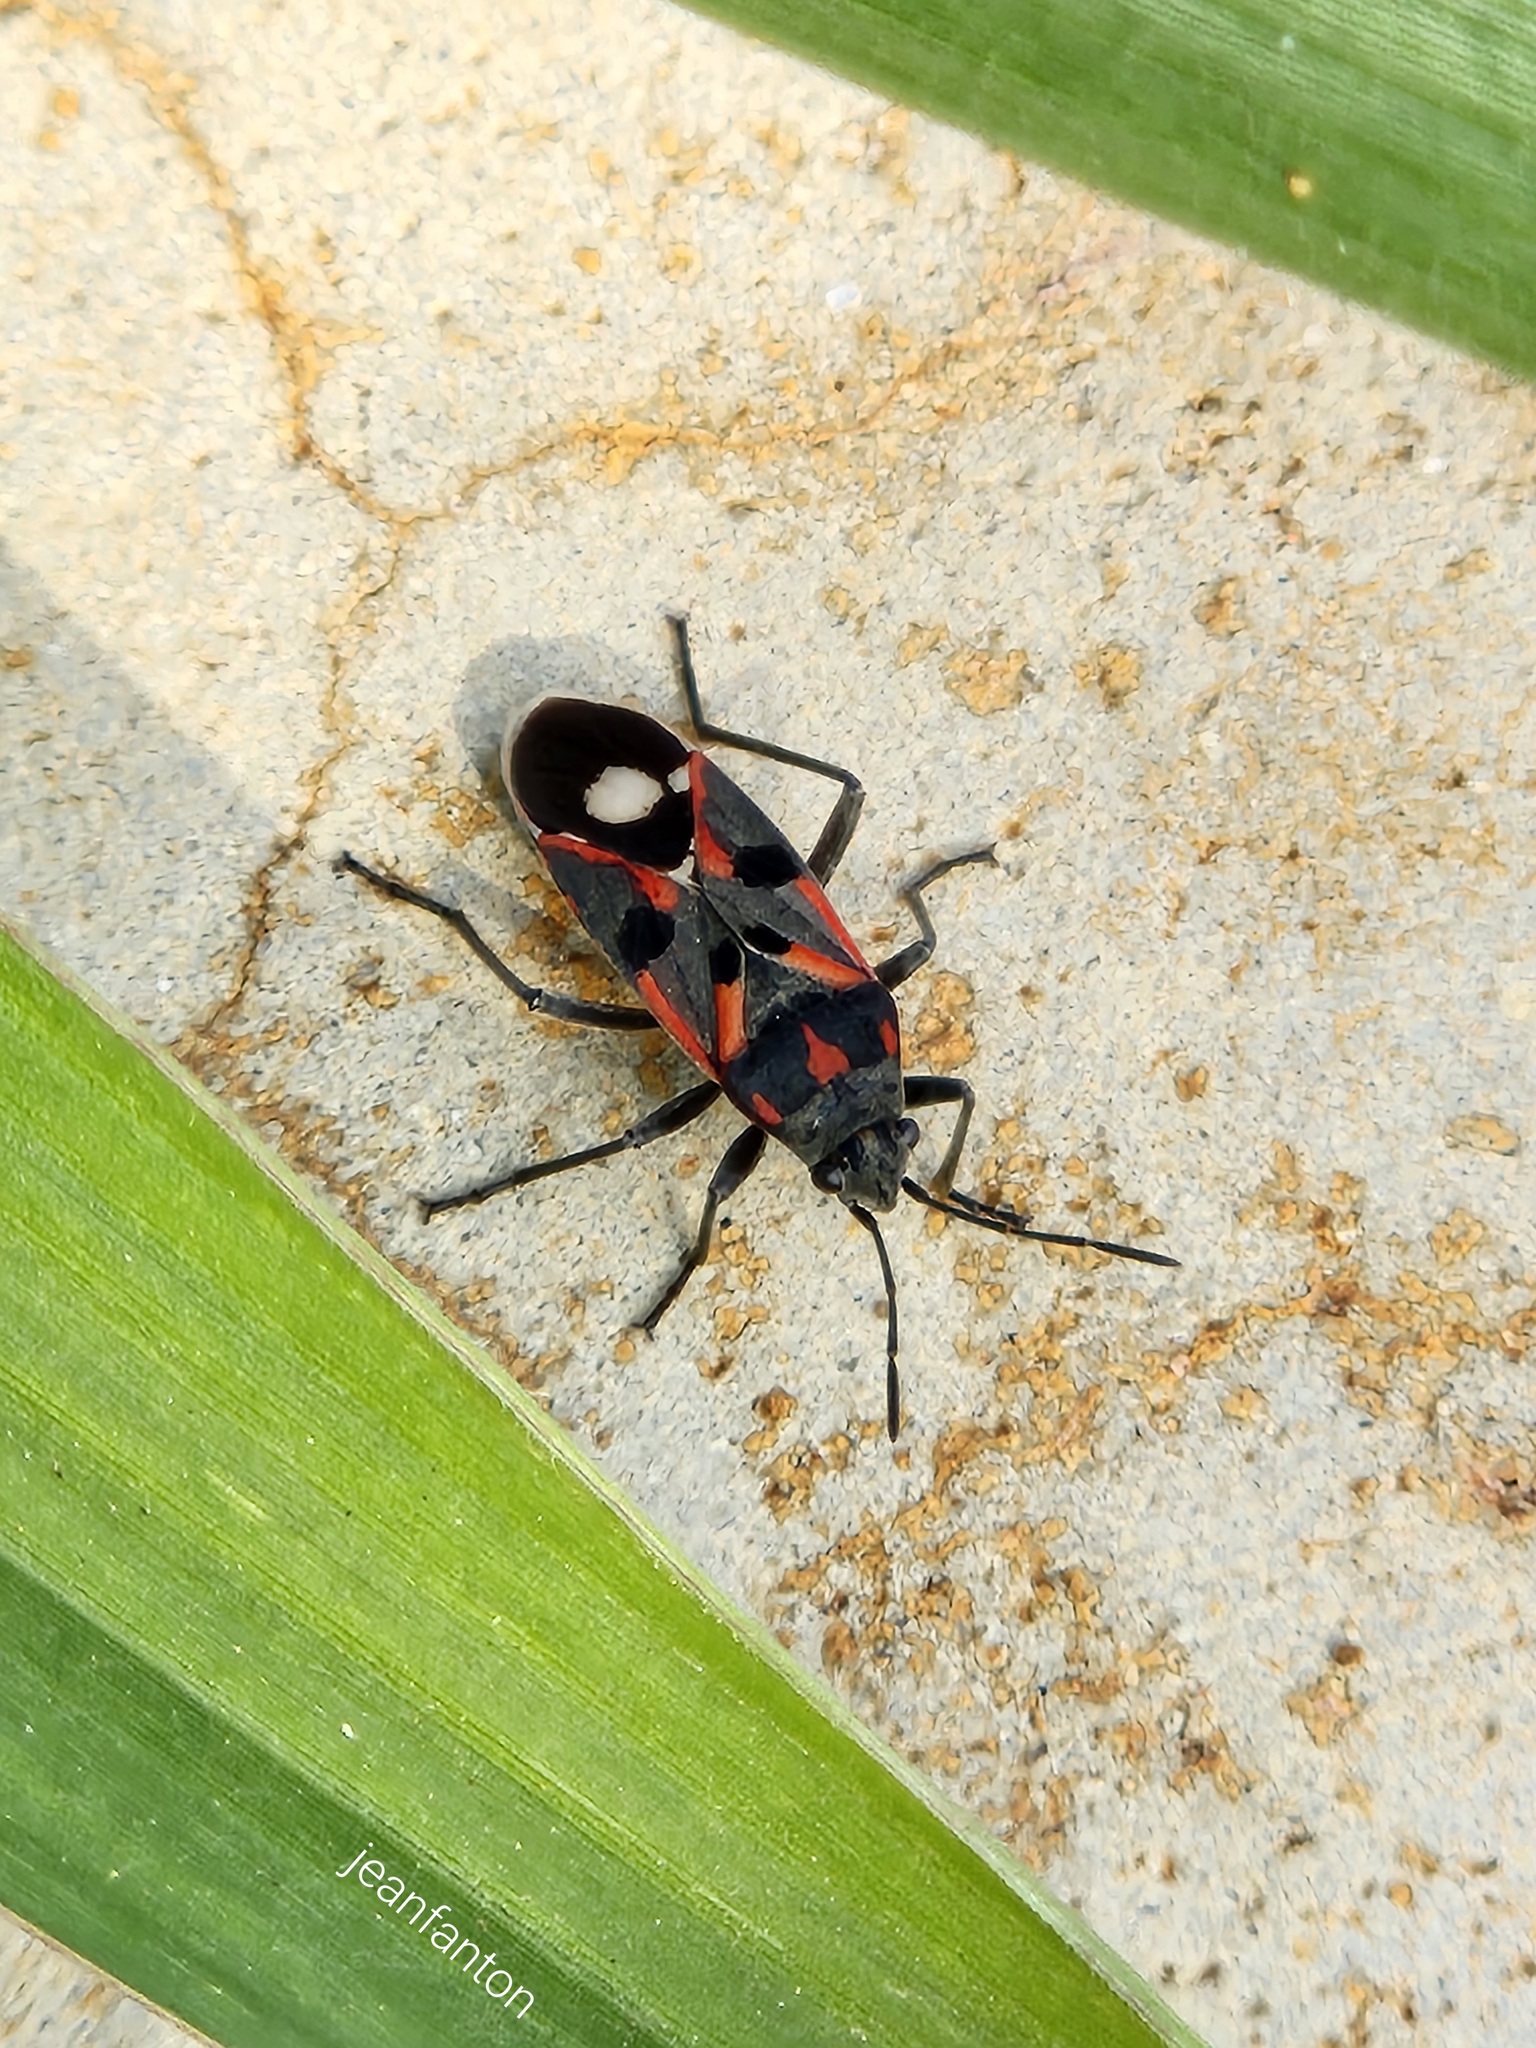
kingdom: Animalia
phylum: Arthropoda
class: Insecta
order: Hemiptera
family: Lygaeidae
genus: Lygaeus
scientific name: Lygaeus alboornatus
